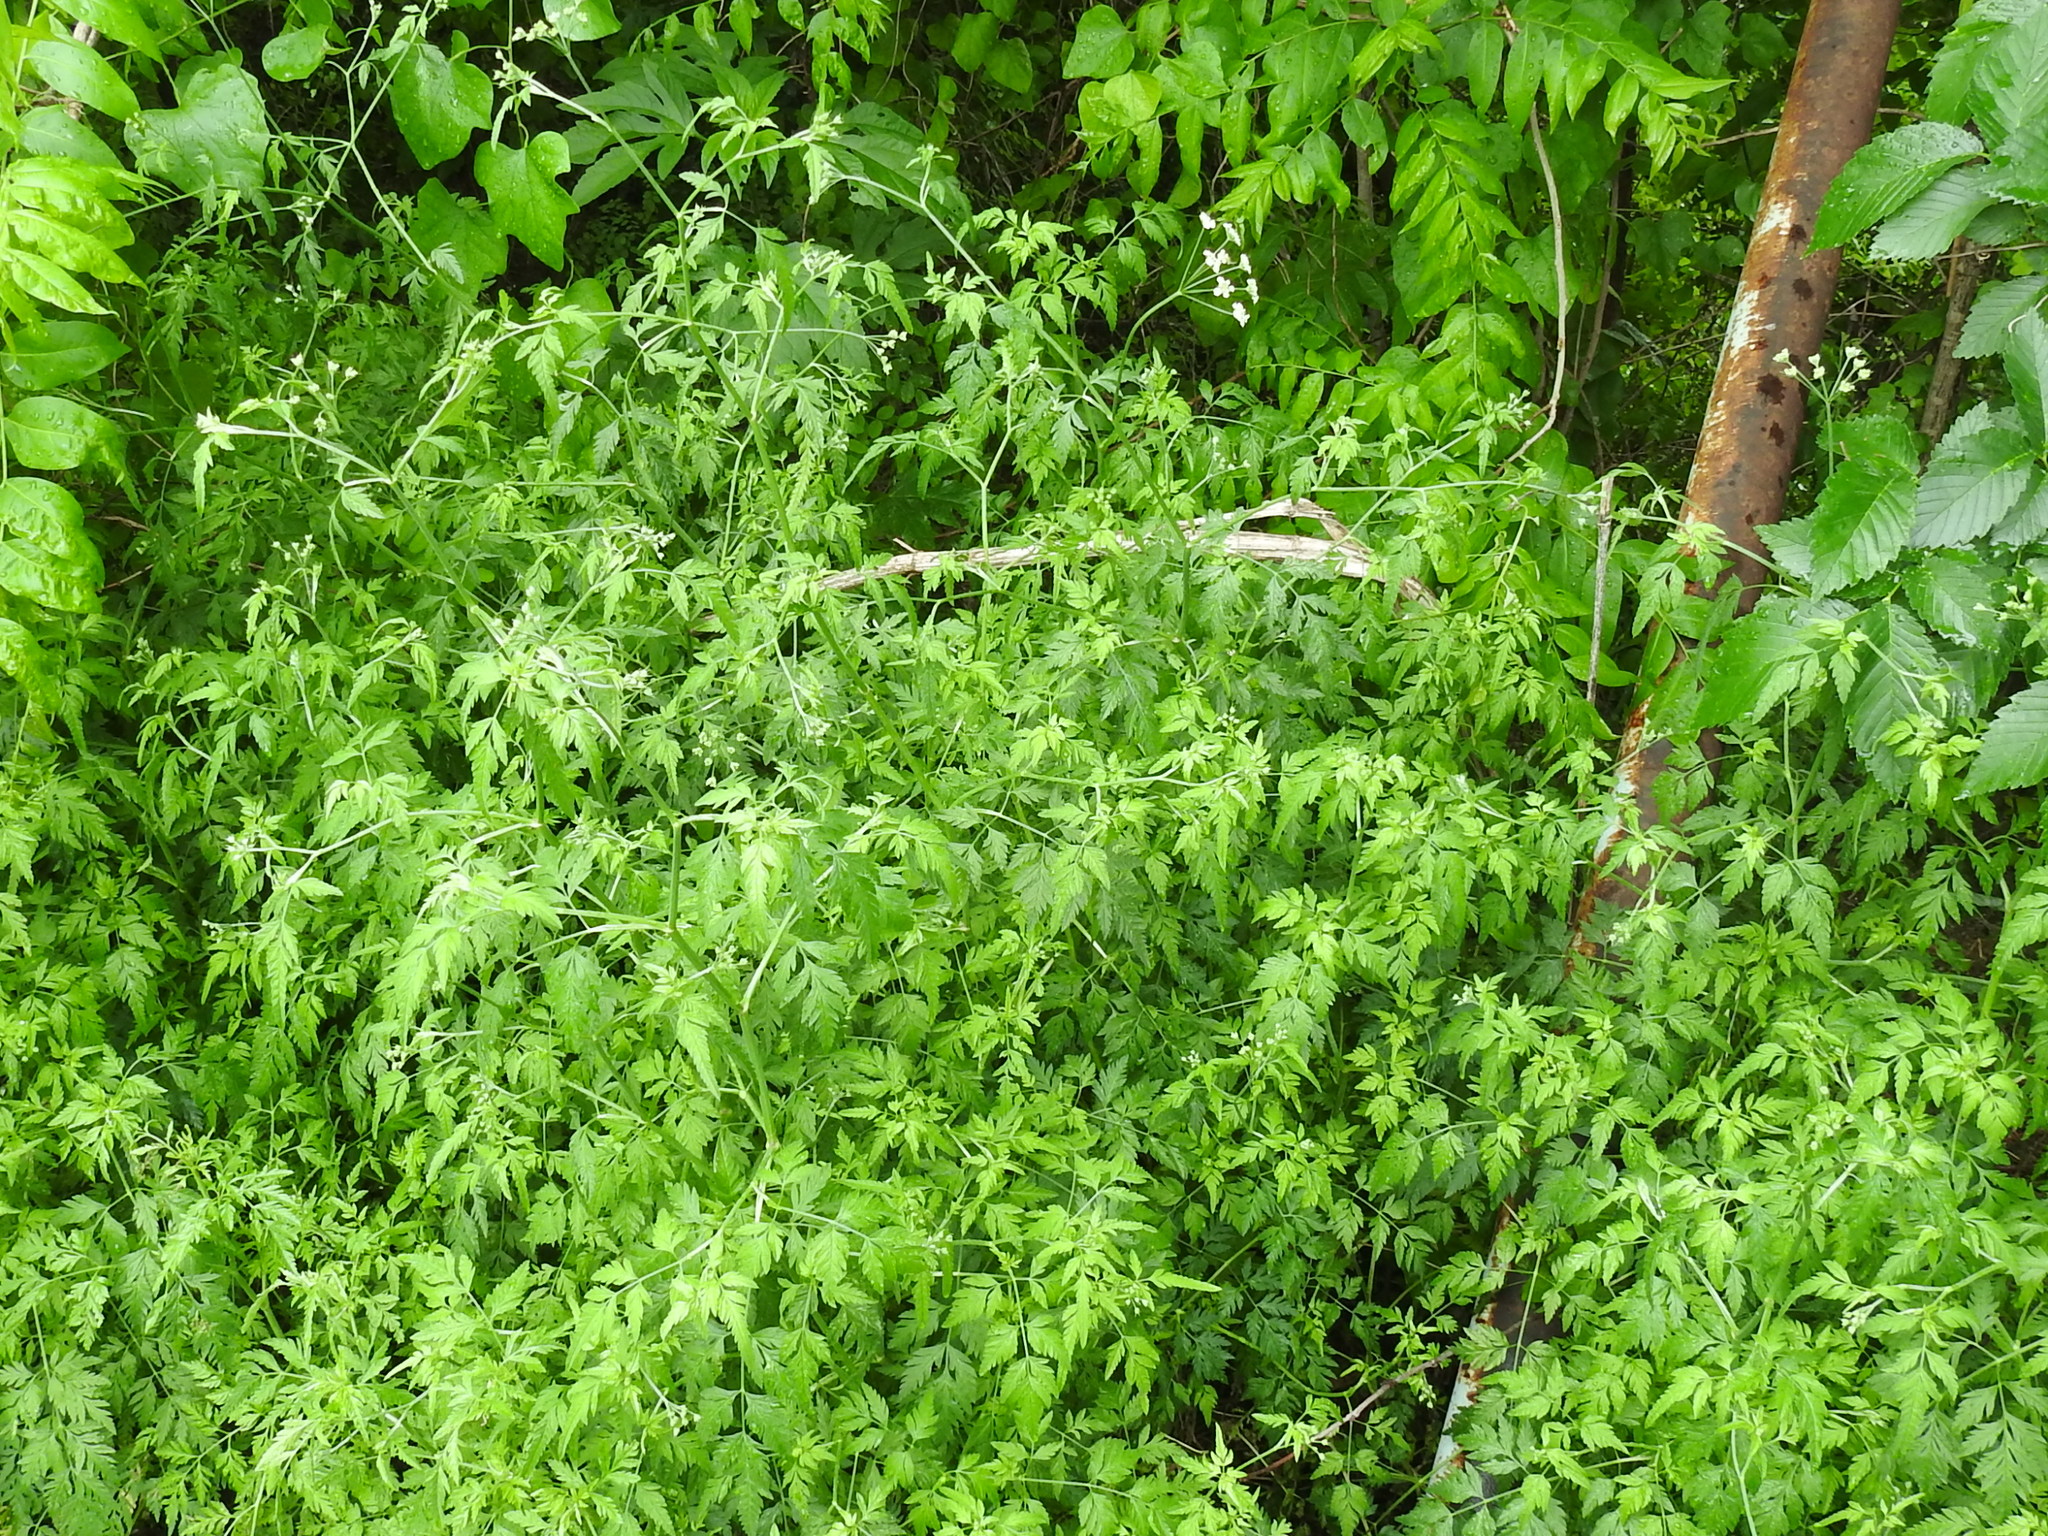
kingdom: Plantae
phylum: Tracheophyta
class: Magnoliopsida
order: Apiales
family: Apiaceae
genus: Torilis
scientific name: Torilis arvensis
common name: Spreading hedge-parsley
